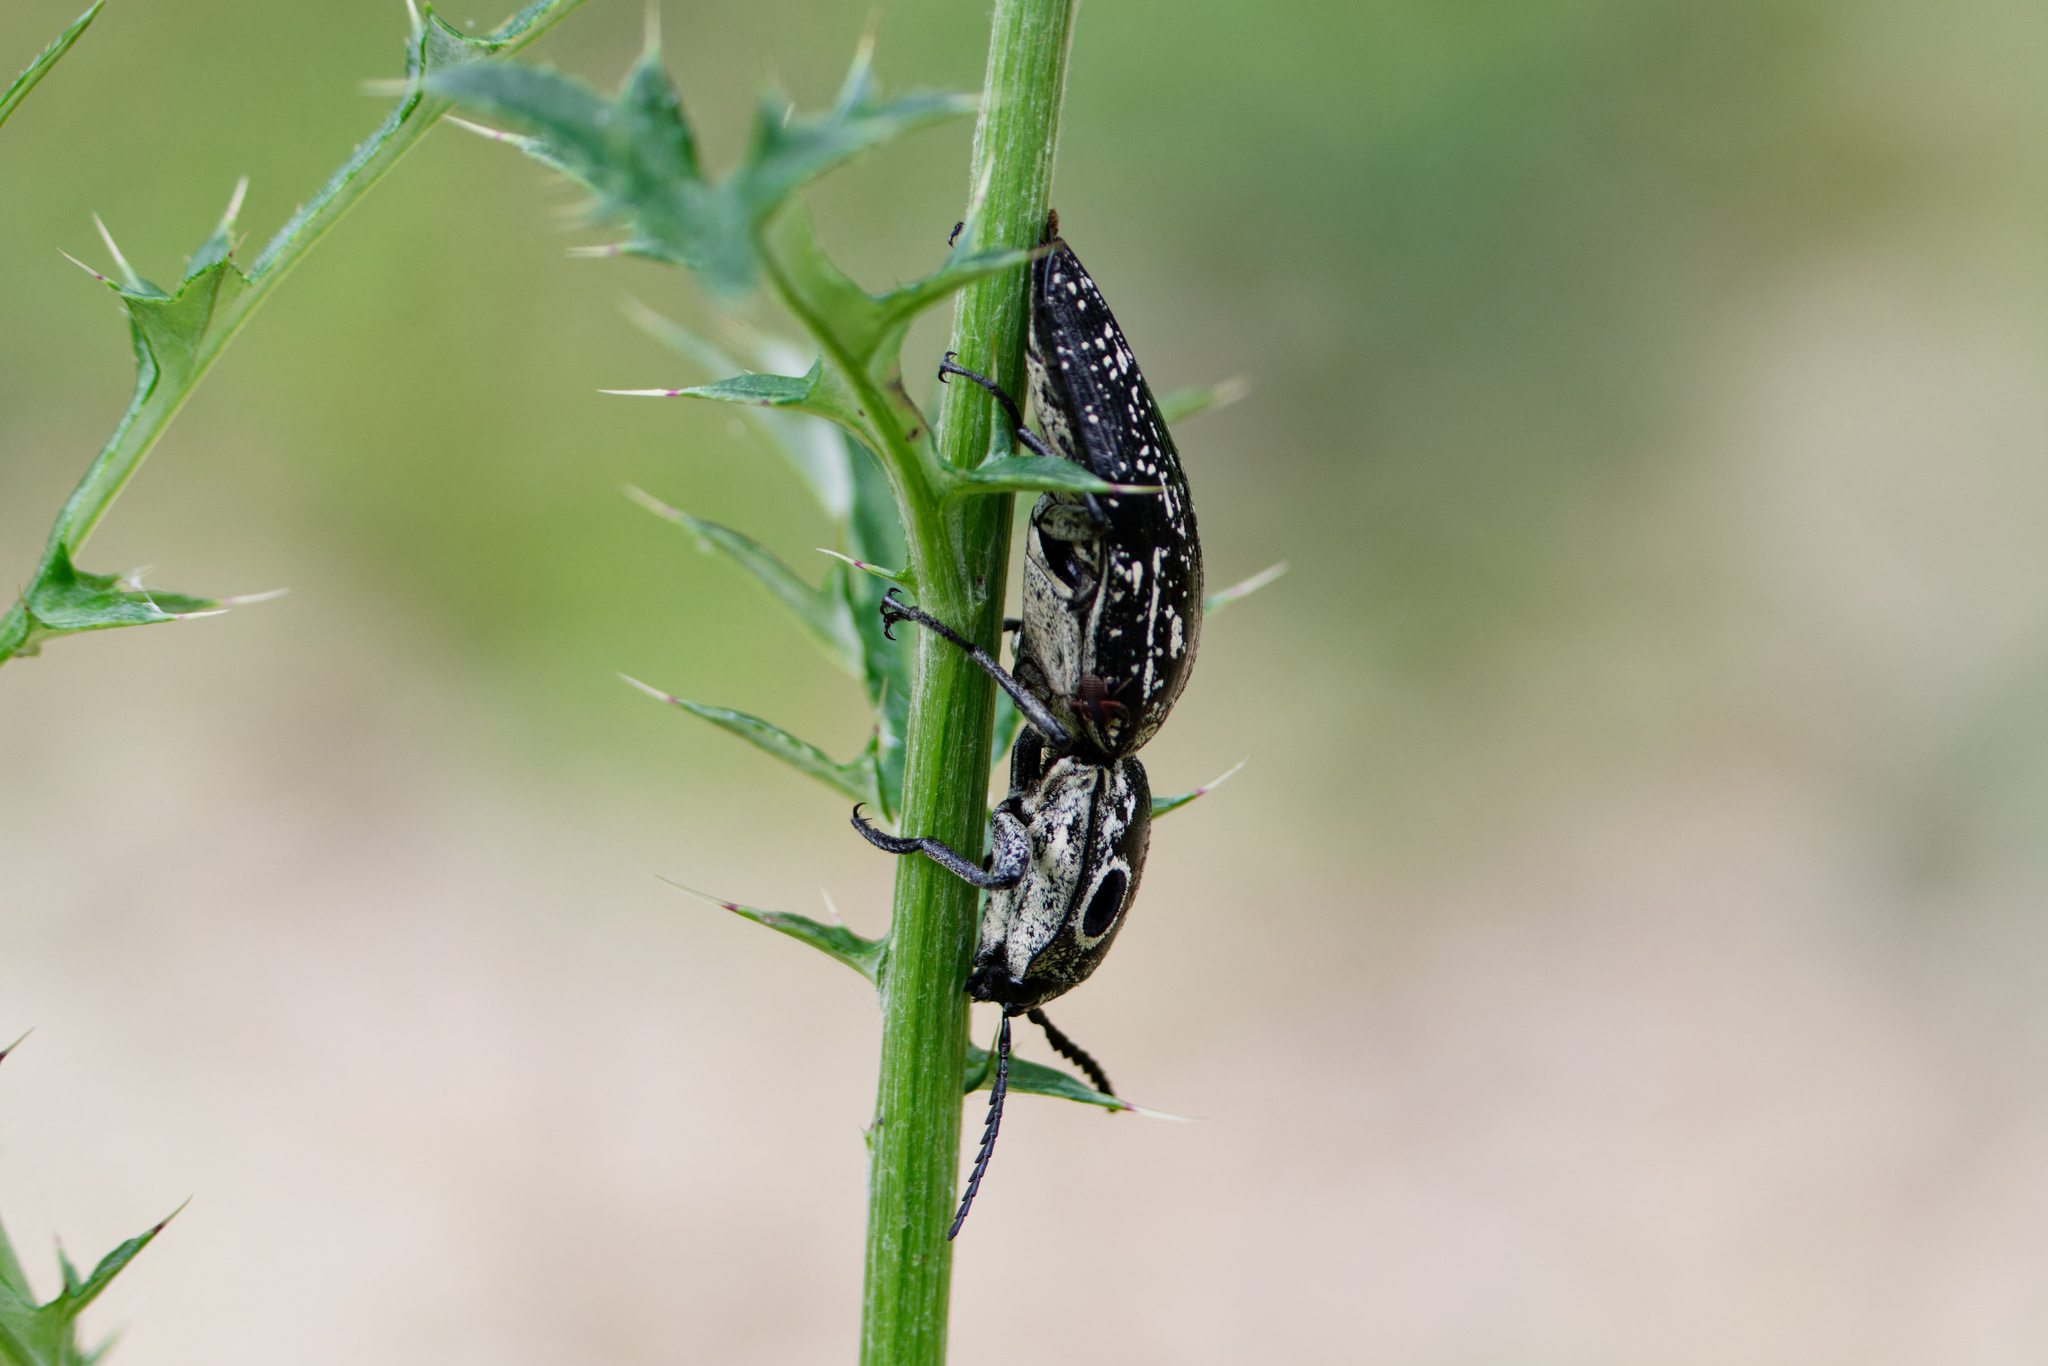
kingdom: Animalia
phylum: Arthropoda
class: Insecta
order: Coleoptera
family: Elateridae
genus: Alaus
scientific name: Alaus oculatus
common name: Eastern eyed click beetle
